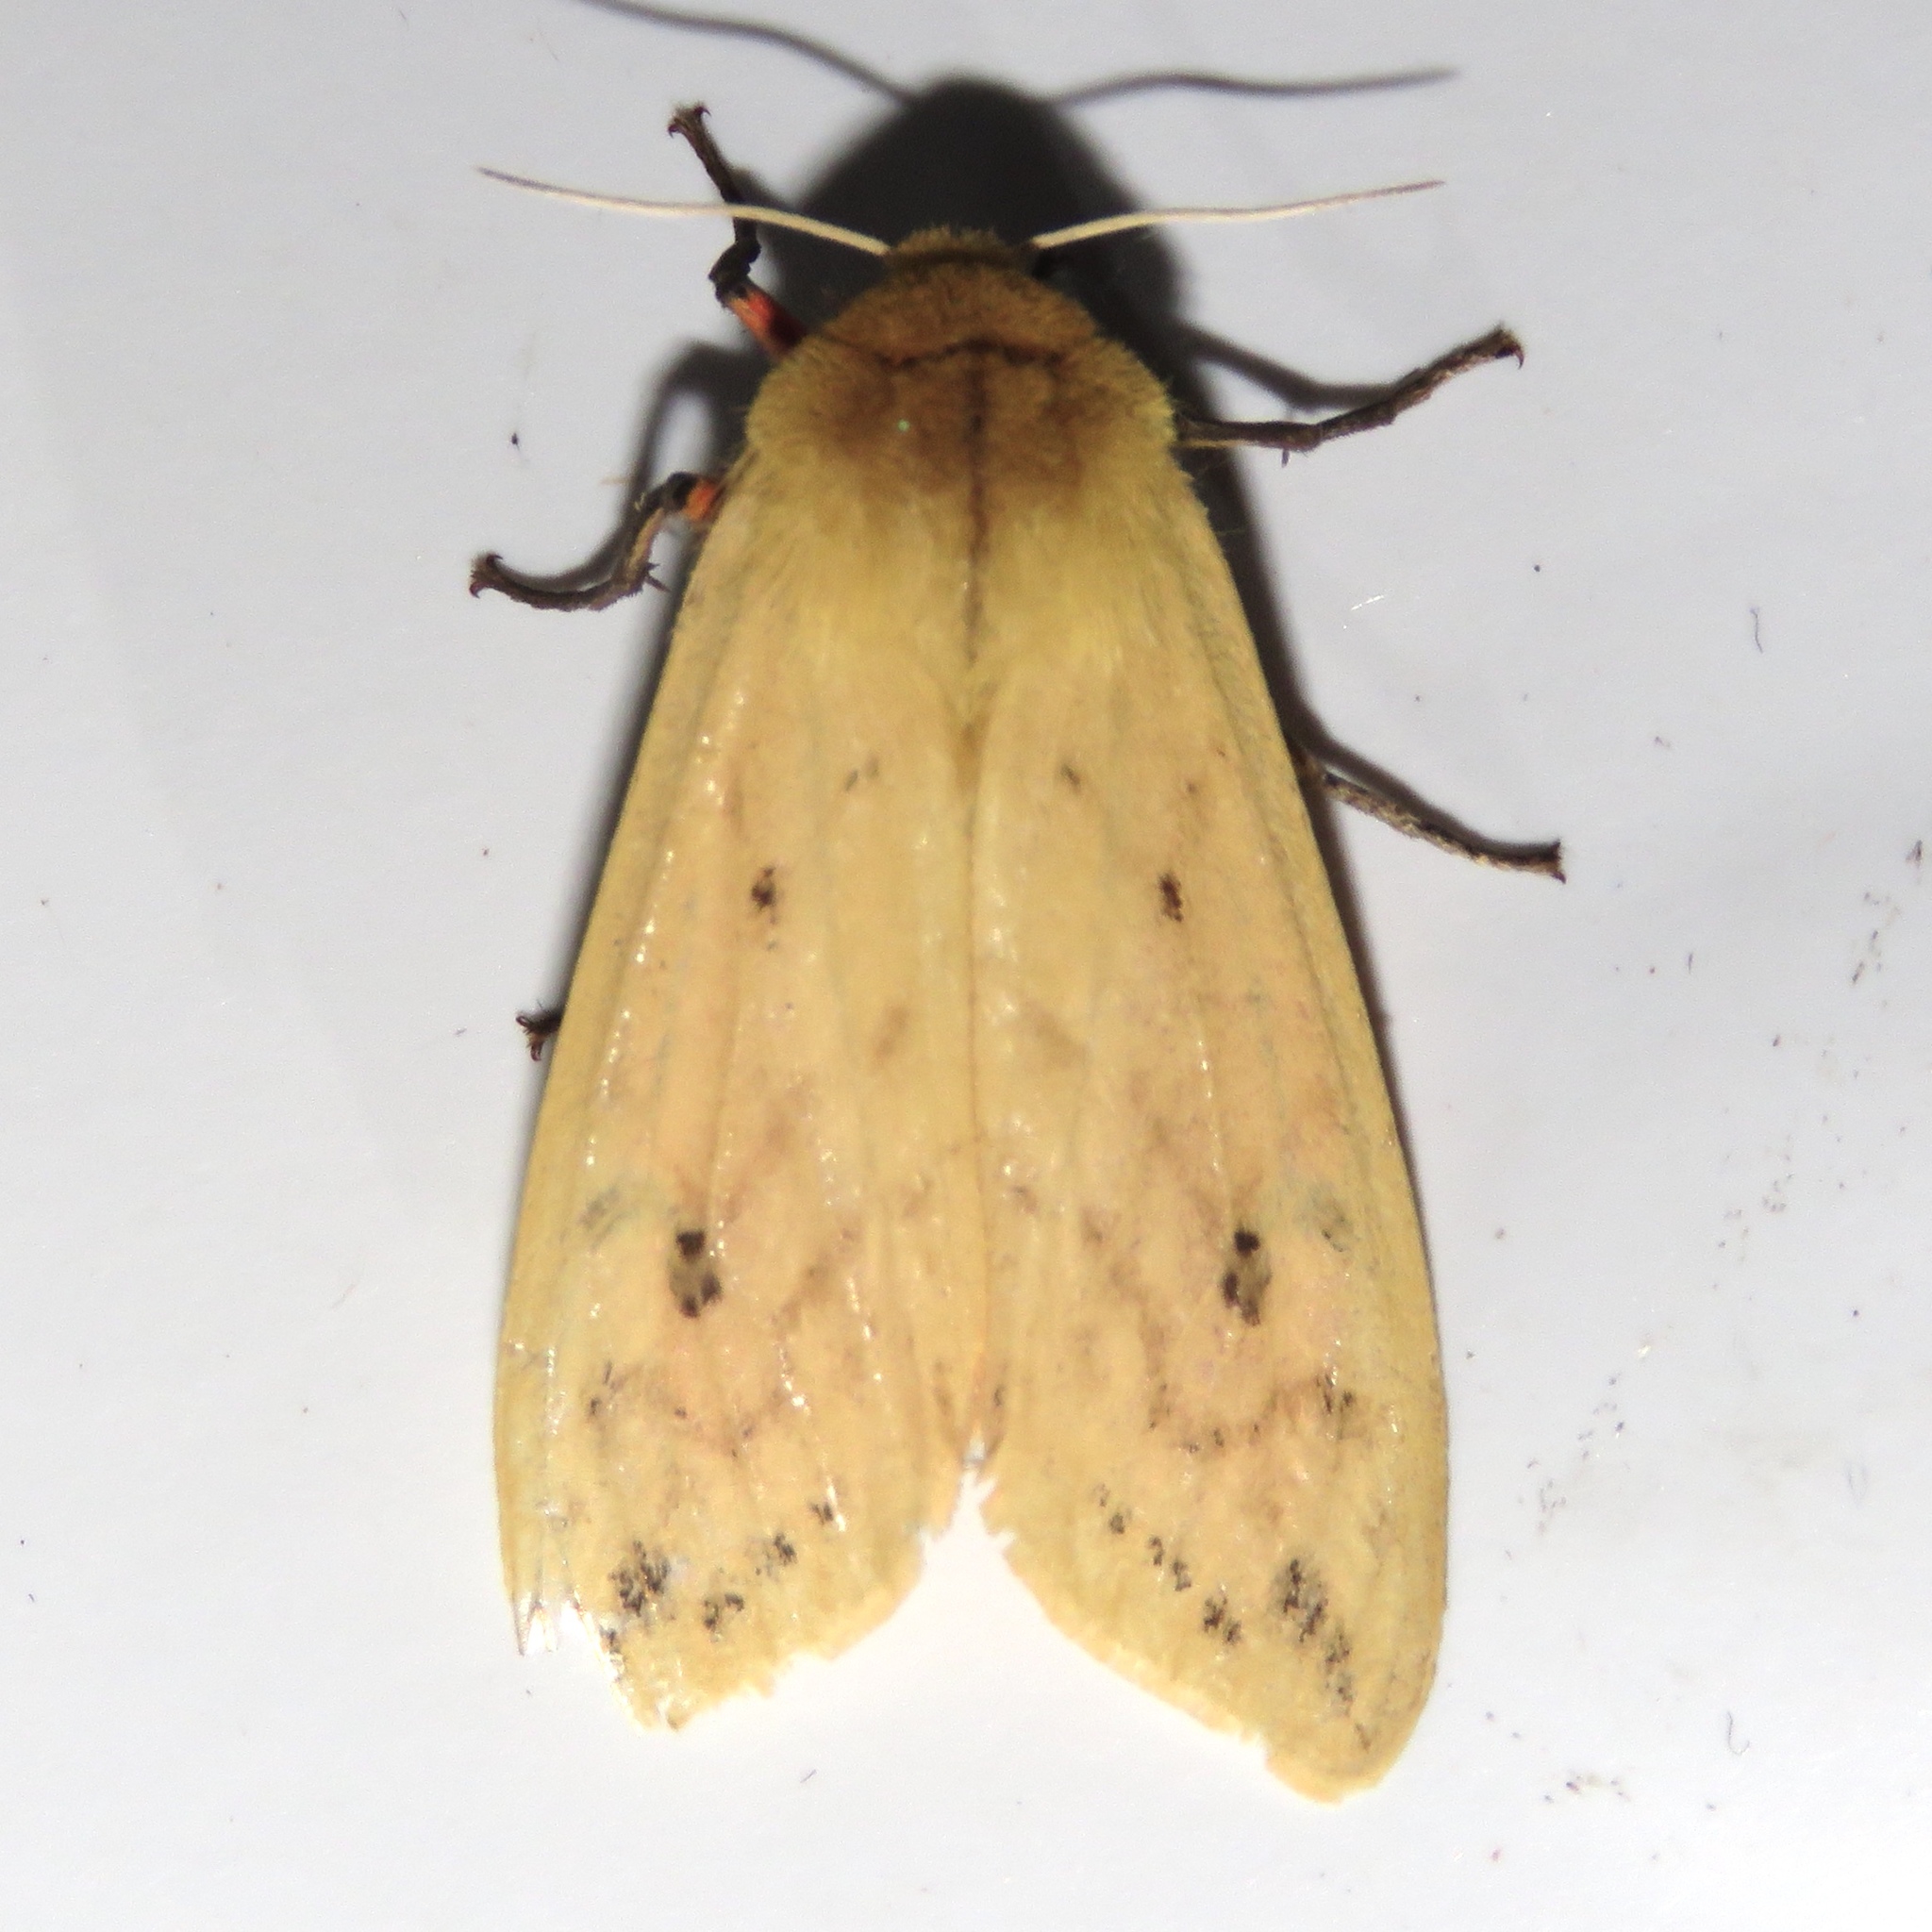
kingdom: Animalia
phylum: Arthropoda
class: Insecta
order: Lepidoptera
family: Erebidae
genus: Pyrrharctia
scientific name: Pyrrharctia isabella
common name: Isabella tiger moth
